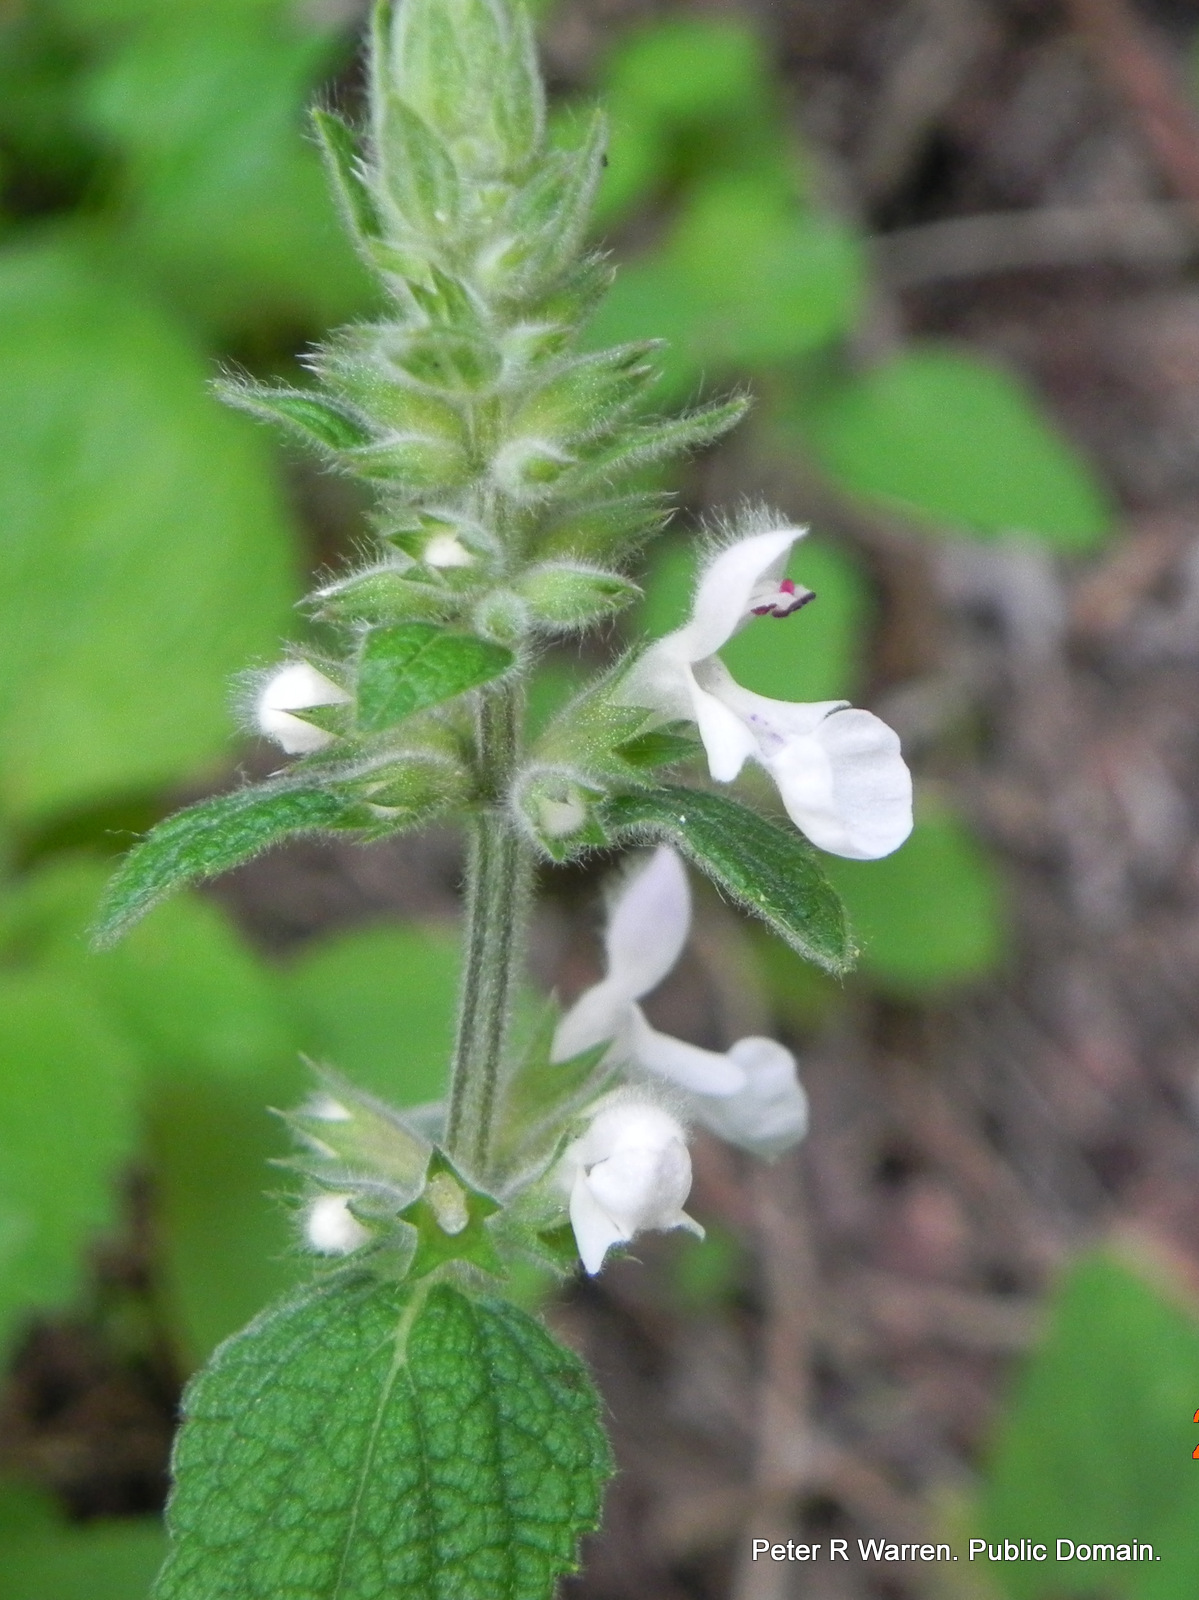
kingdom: Plantae
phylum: Tracheophyta
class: Magnoliopsida
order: Lamiales
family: Lamiaceae
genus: Stachys
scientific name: Stachys kuntzei
